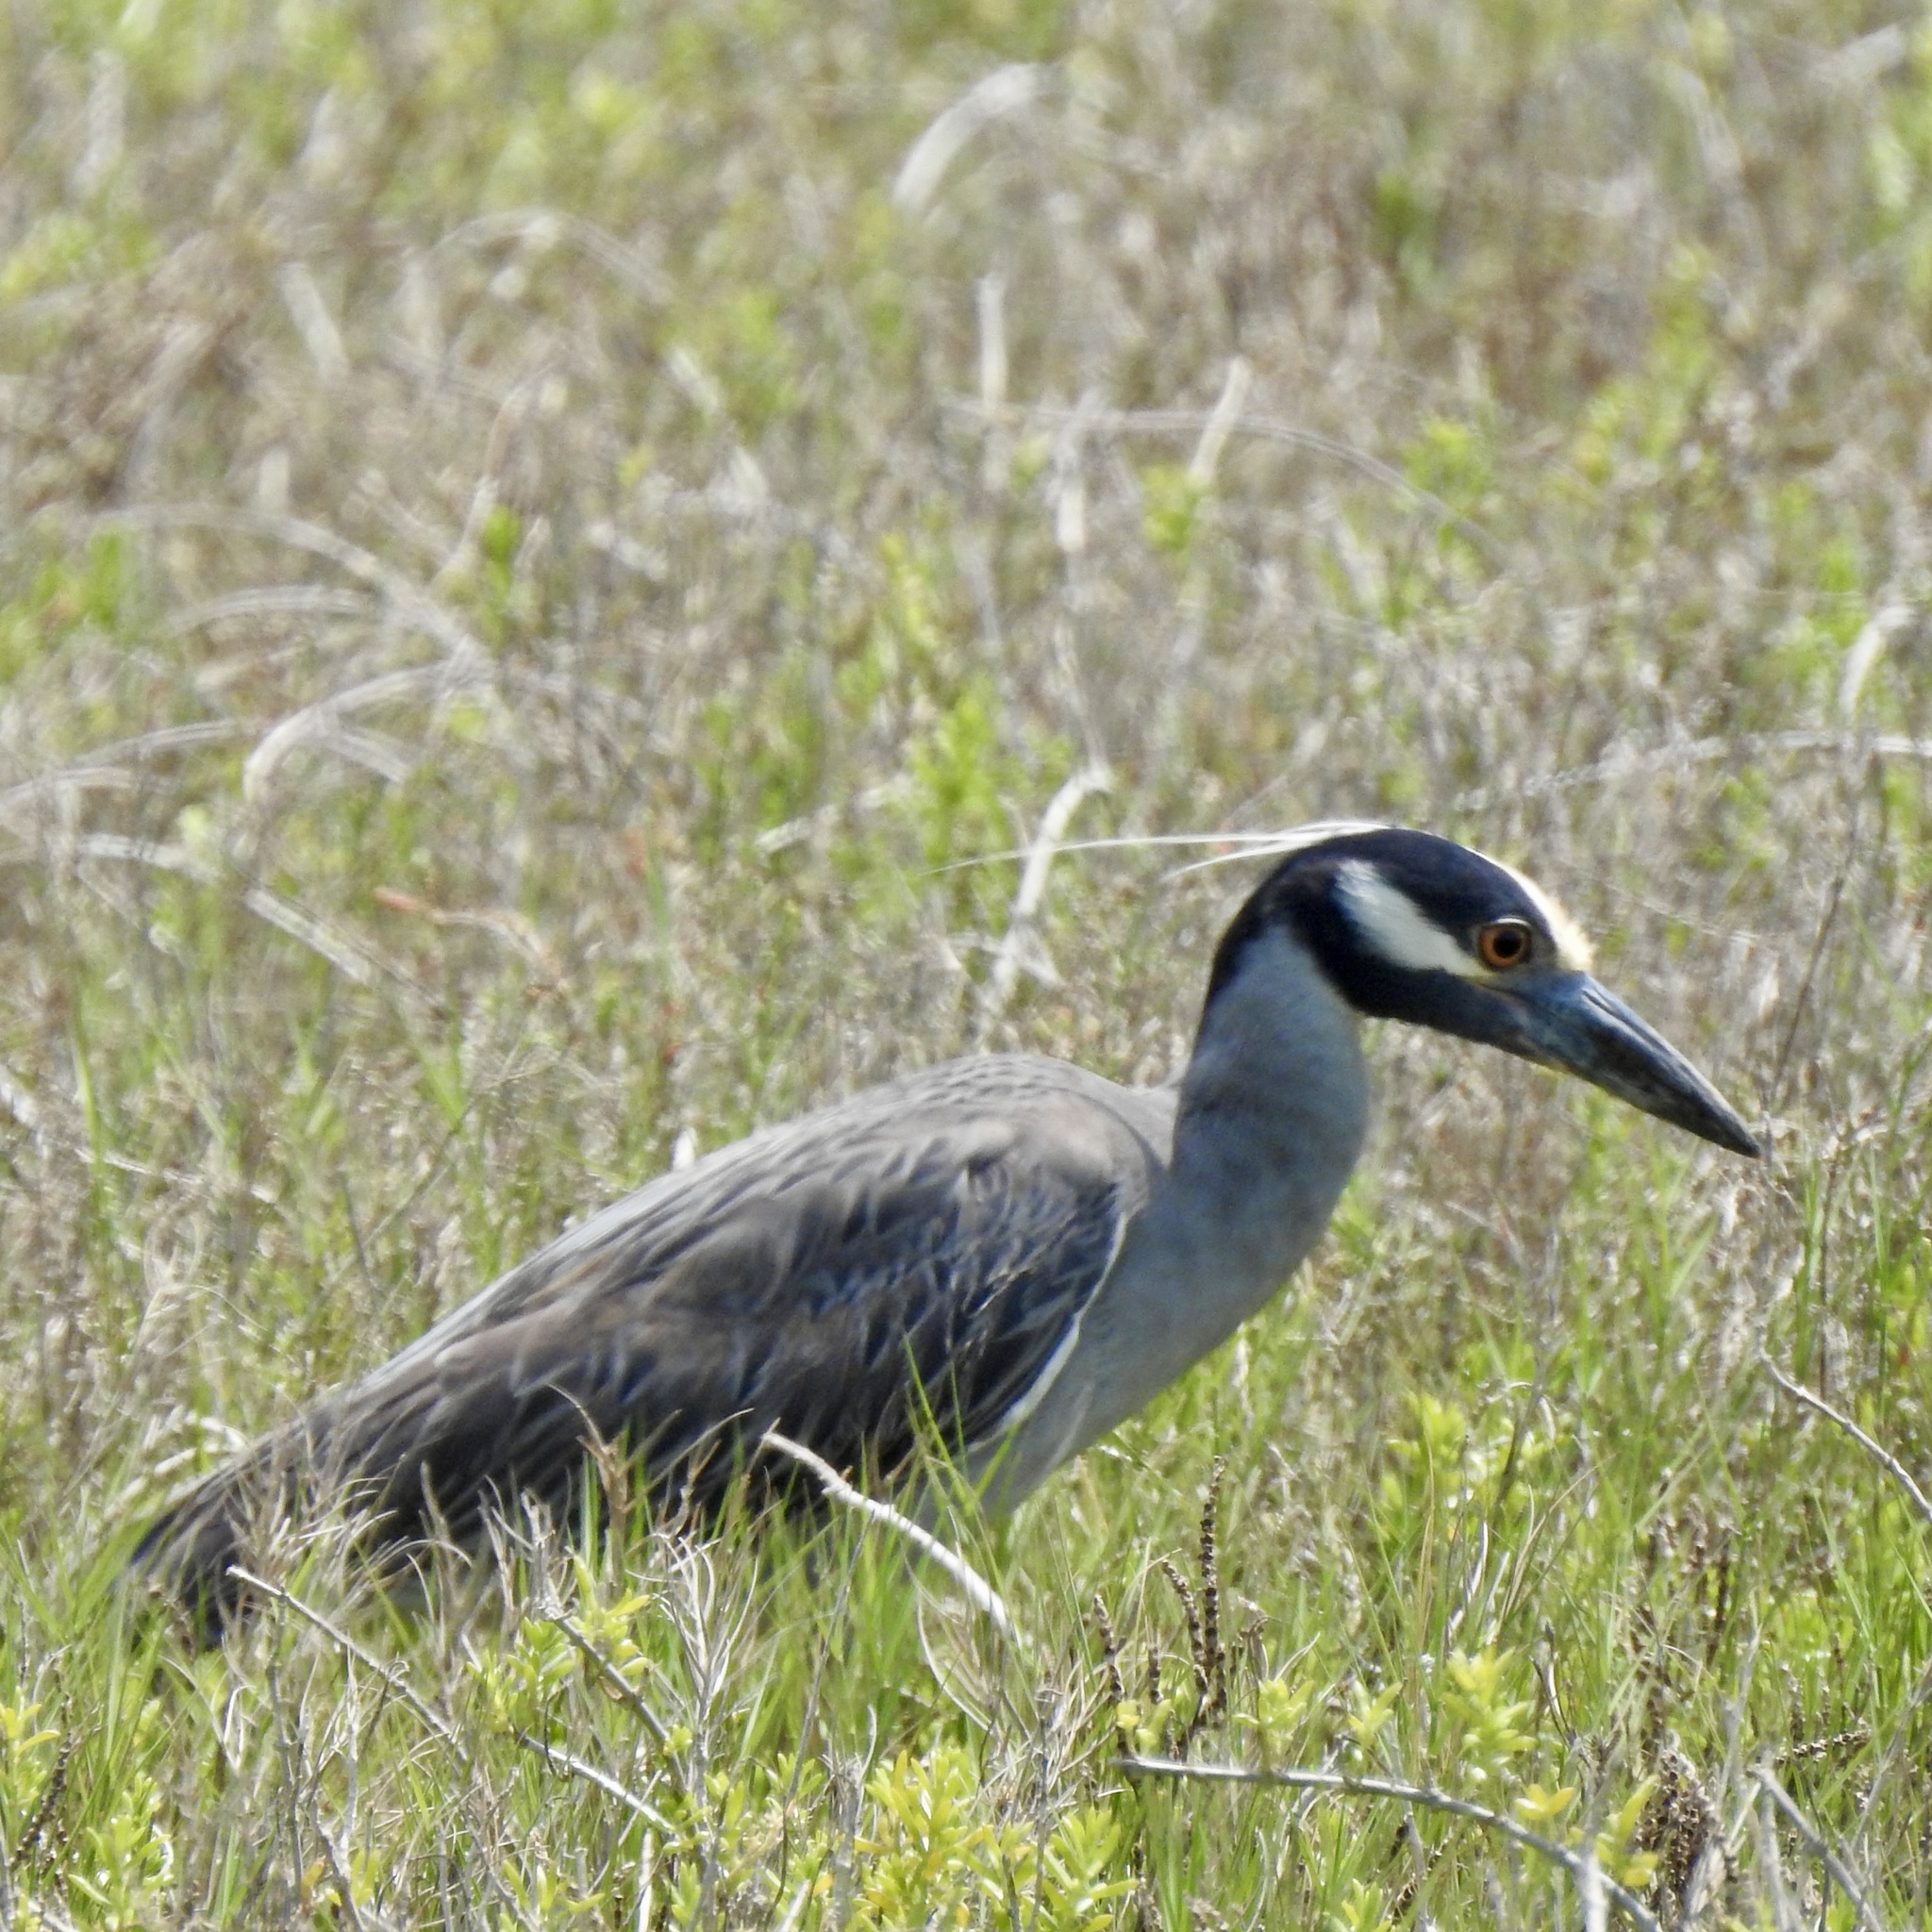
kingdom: Animalia
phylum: Chordata
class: Aves
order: Pelecaniformes
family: Ardeidae
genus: Nyctanassa
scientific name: Nyctanassa violacea
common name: Yellow-crowned night heron
